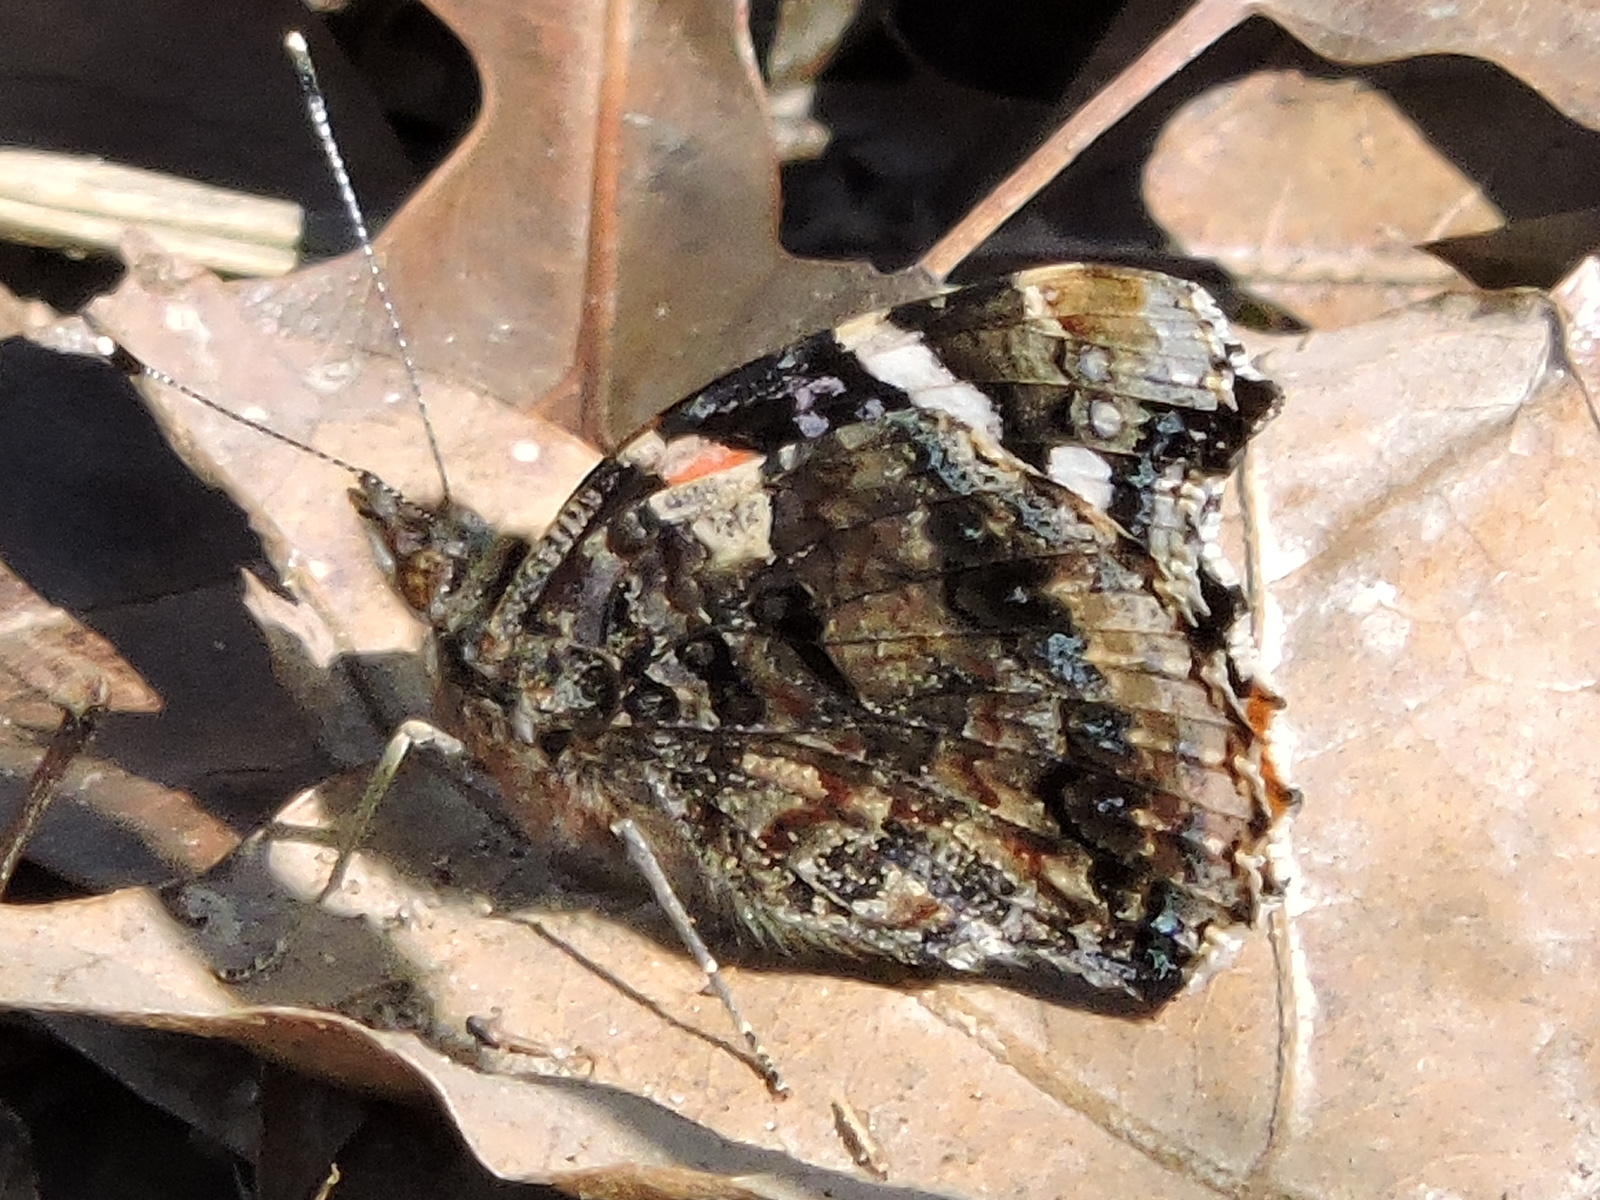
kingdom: Animalia
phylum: Arthropoda
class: Insecta
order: Lepidoptera
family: Nymphalidae
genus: Vanessa
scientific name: Vanessa atalanta
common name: Red admiral
